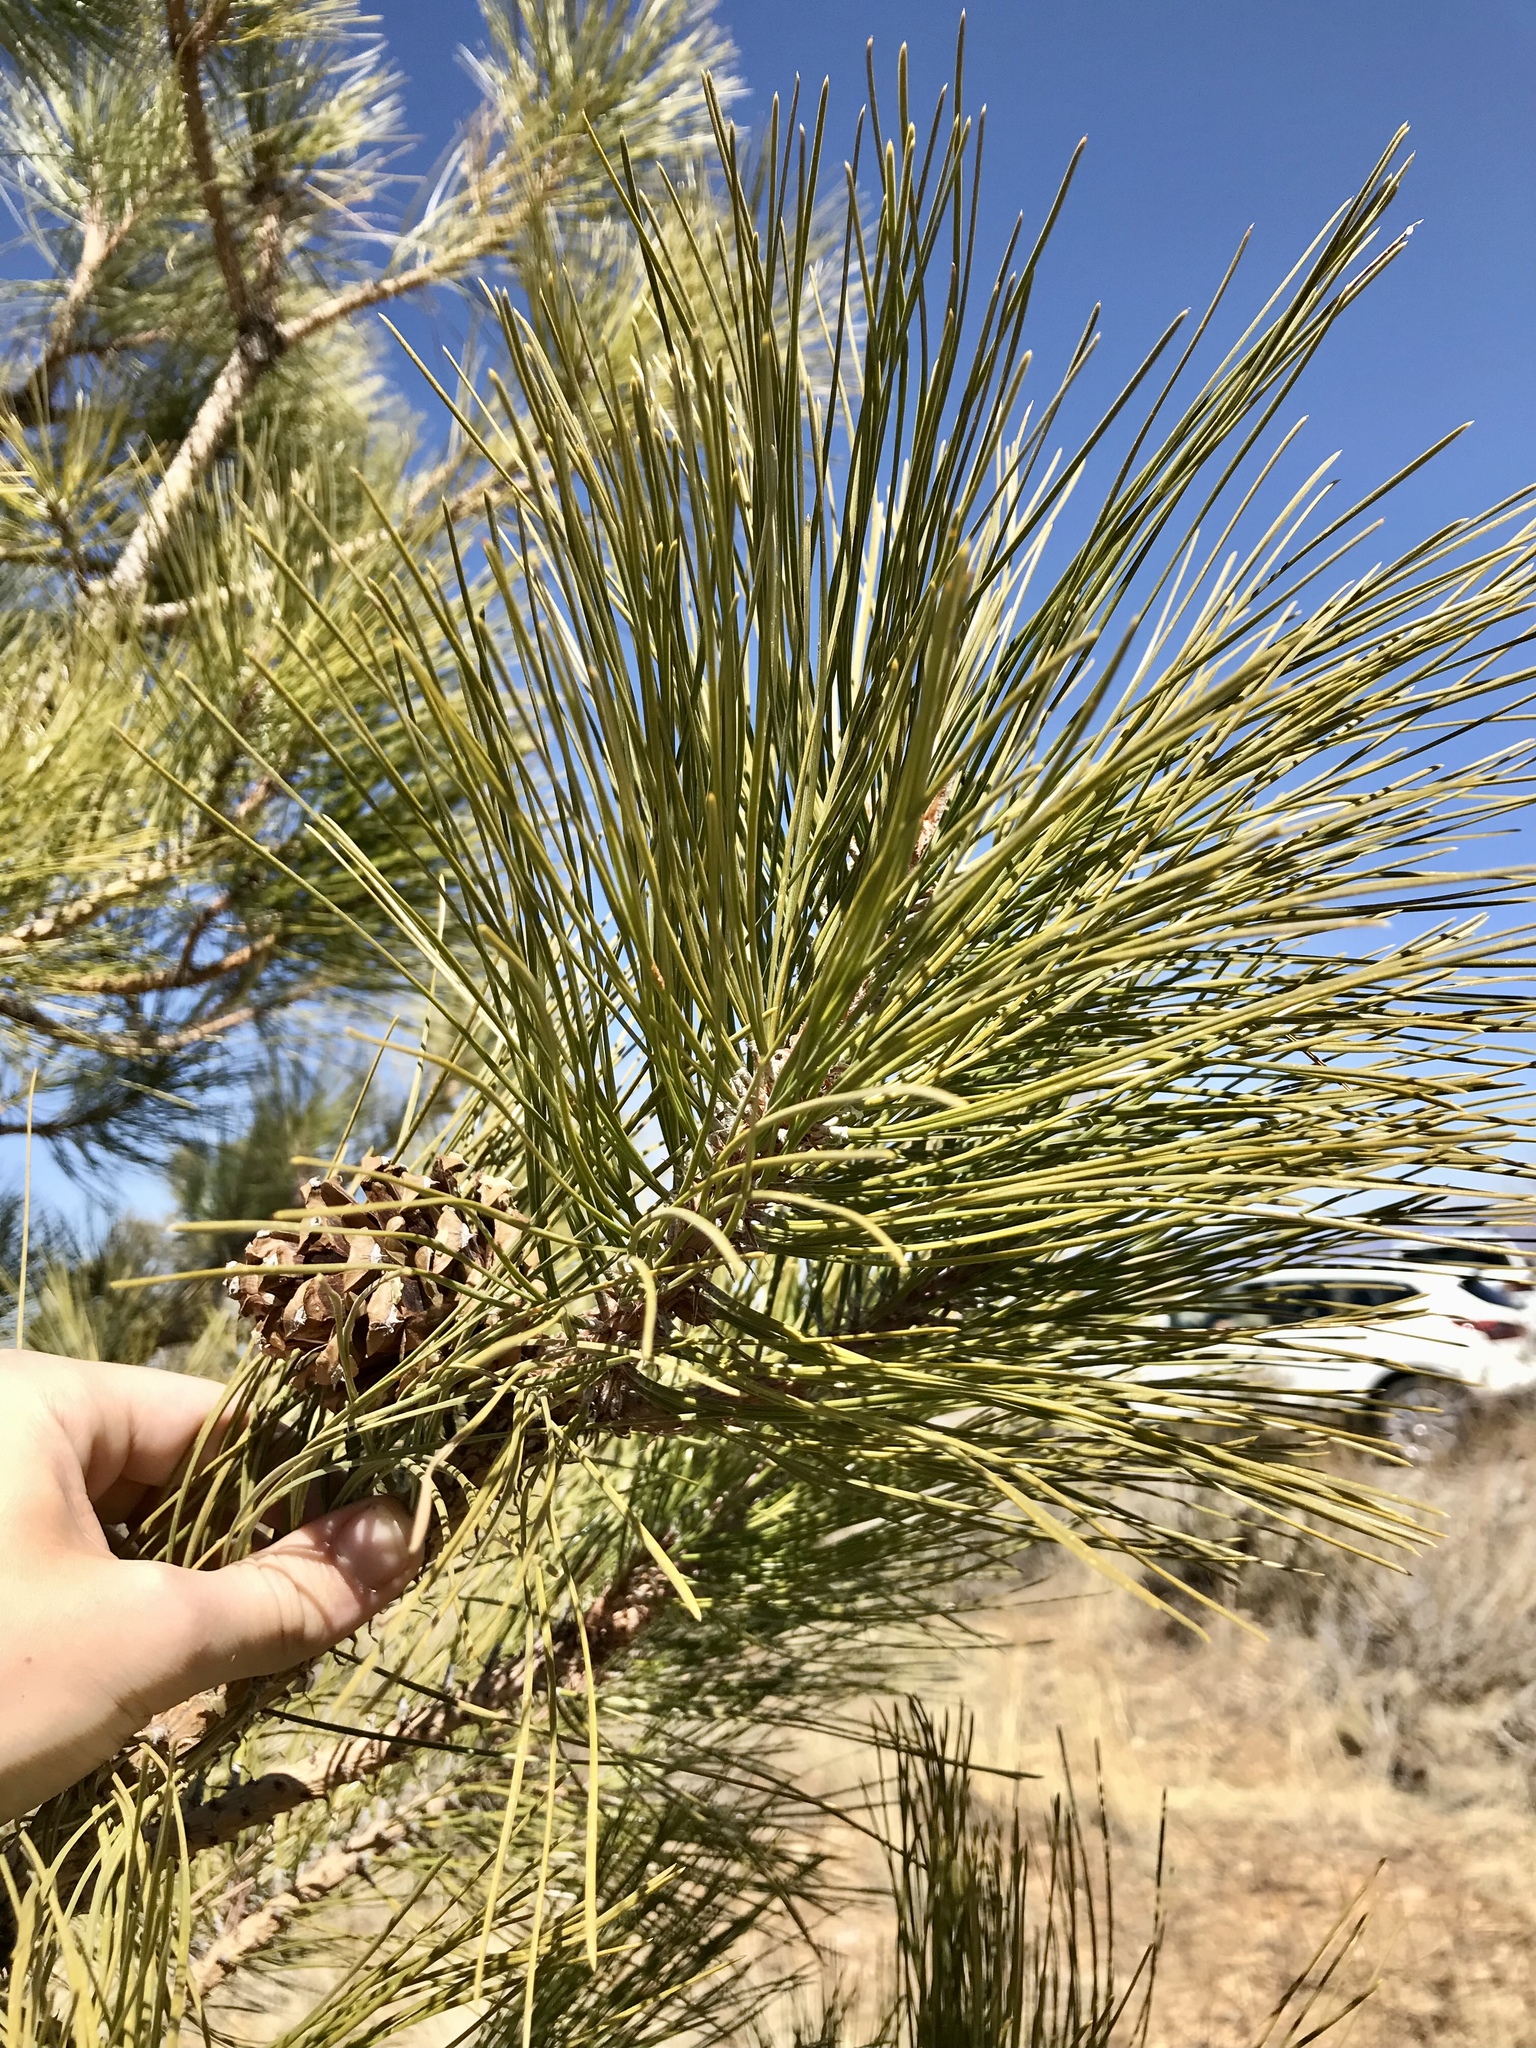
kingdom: Plantae
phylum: Tracheophyta
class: Pinopsida
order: Pinales
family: Pinaceae
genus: Pinus
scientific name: Pinus ponderosa
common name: Western yellow-pine
